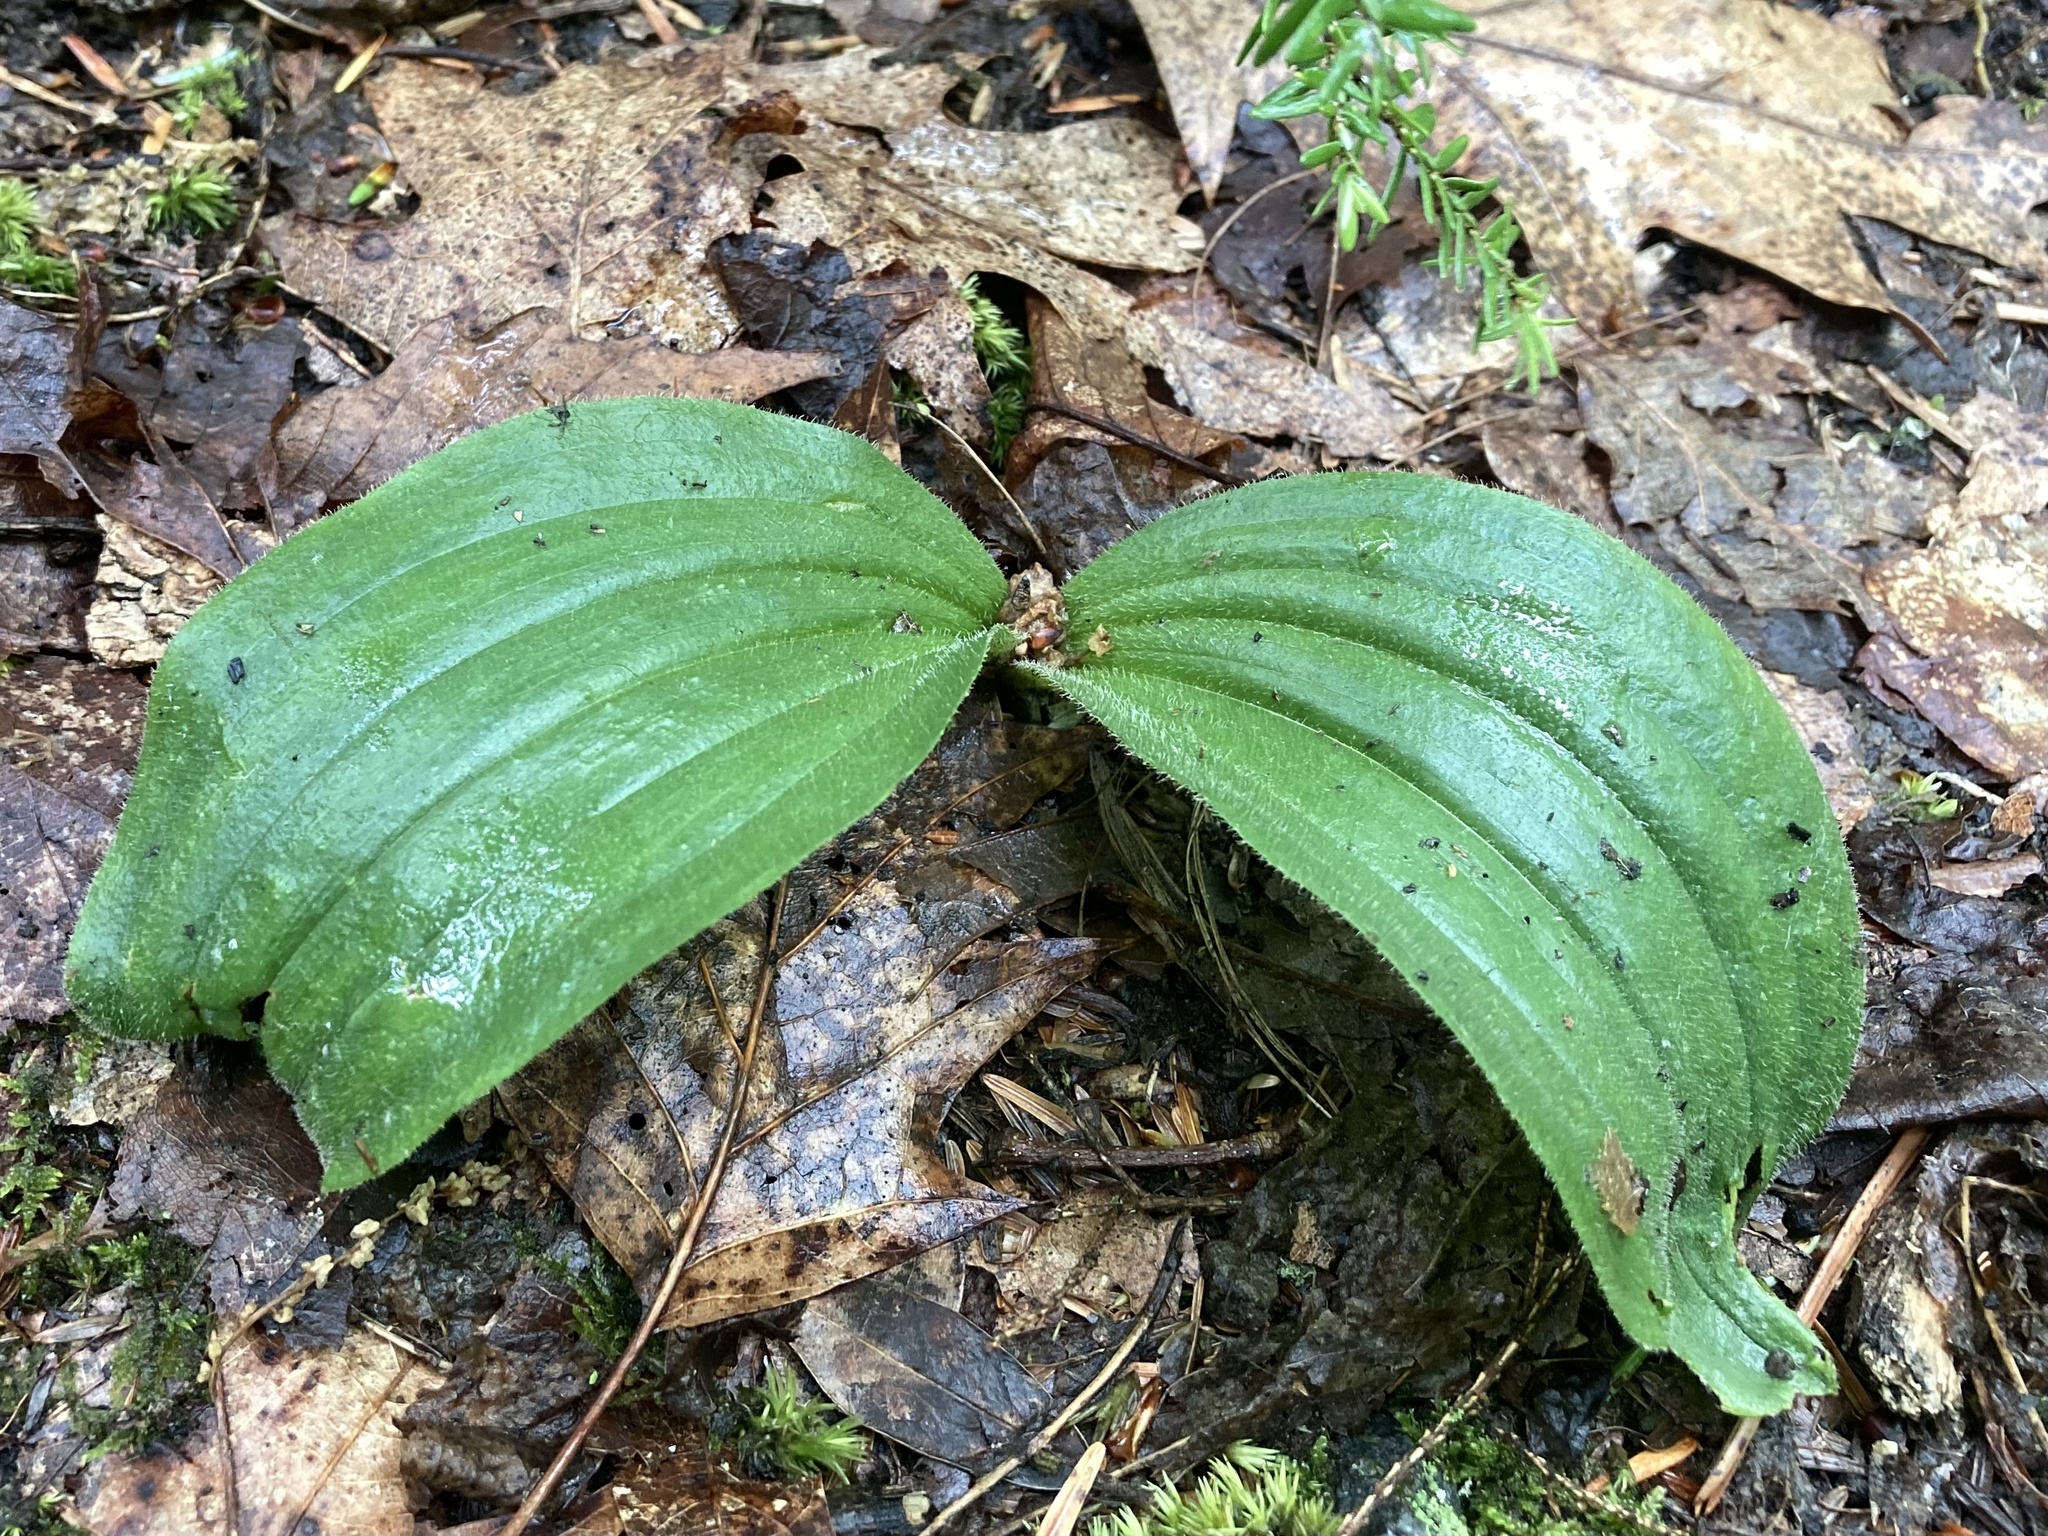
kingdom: Plantae
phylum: Tracheophyta
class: Liliopsida
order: Asparagales
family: Orchidaceae
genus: Cypripedium
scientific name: Cypripedium acaule
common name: Pink lady's-slipper
